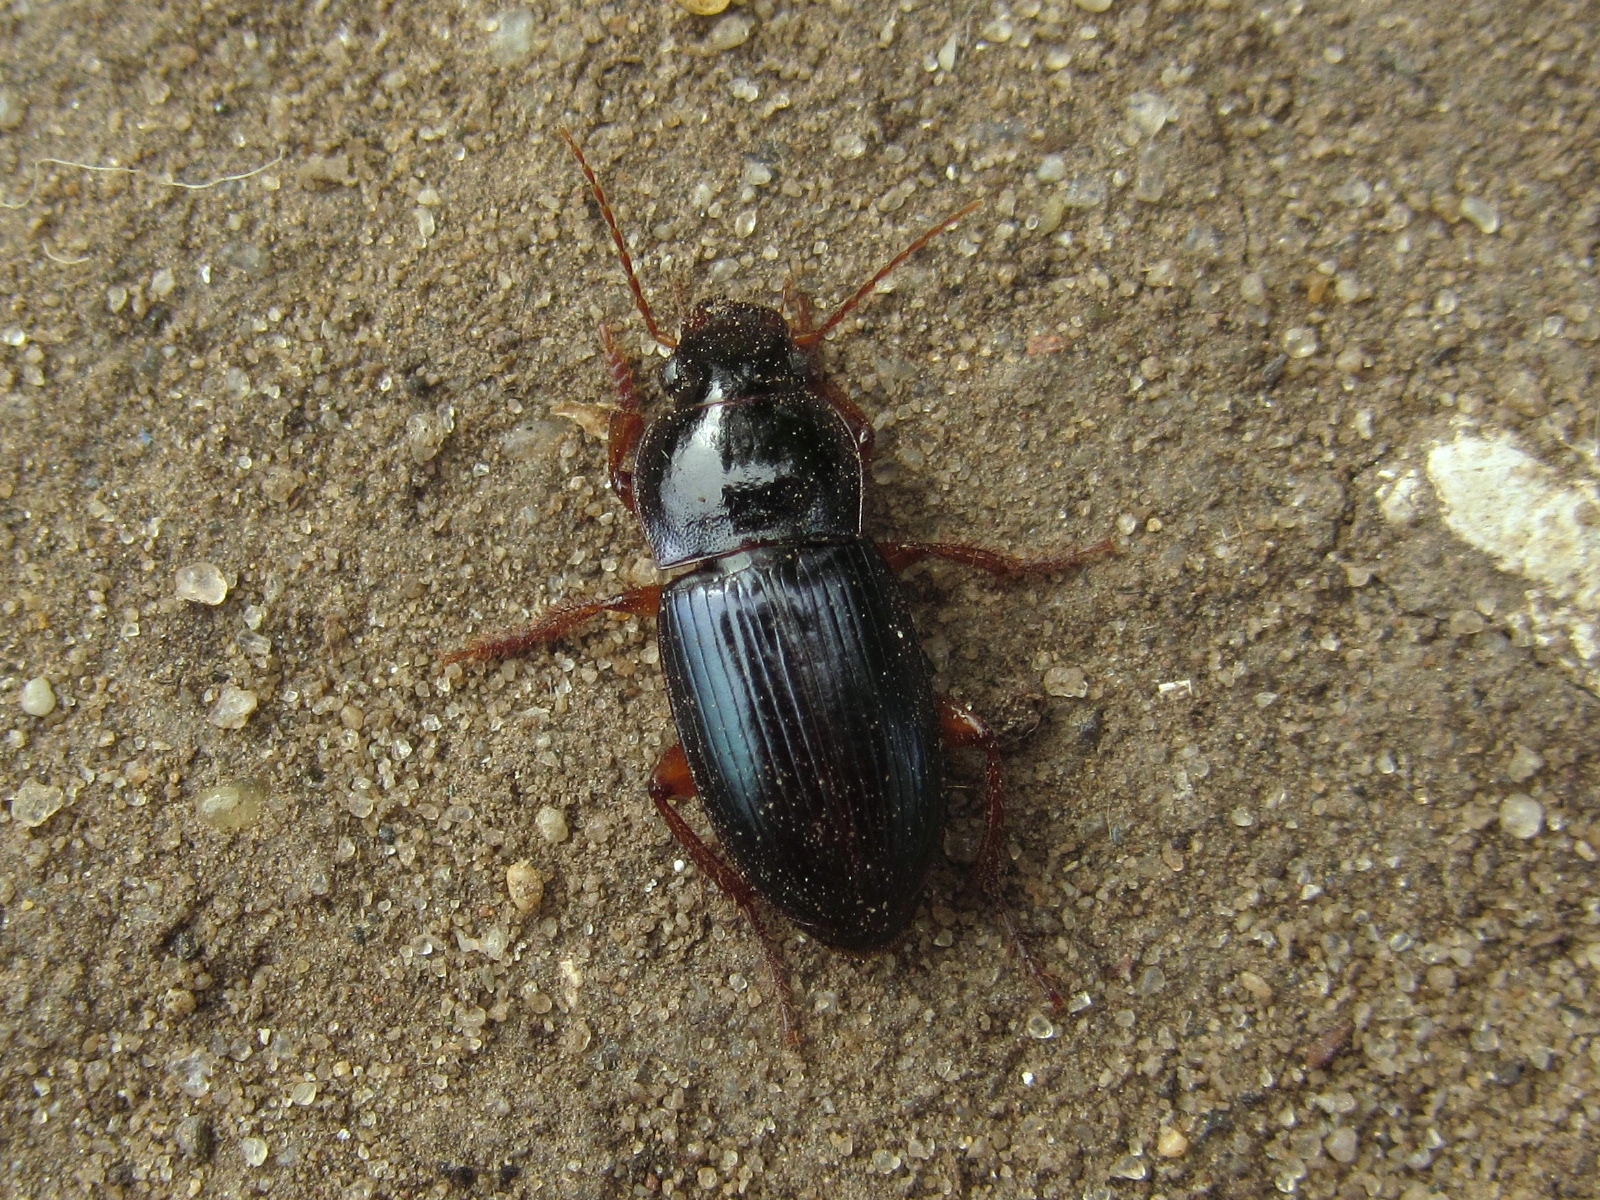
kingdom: Animalia
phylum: Arthropoda
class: Insecta
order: Coleoptera
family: Carabidae
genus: Harpalus
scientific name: Harpalus smaragdinus
